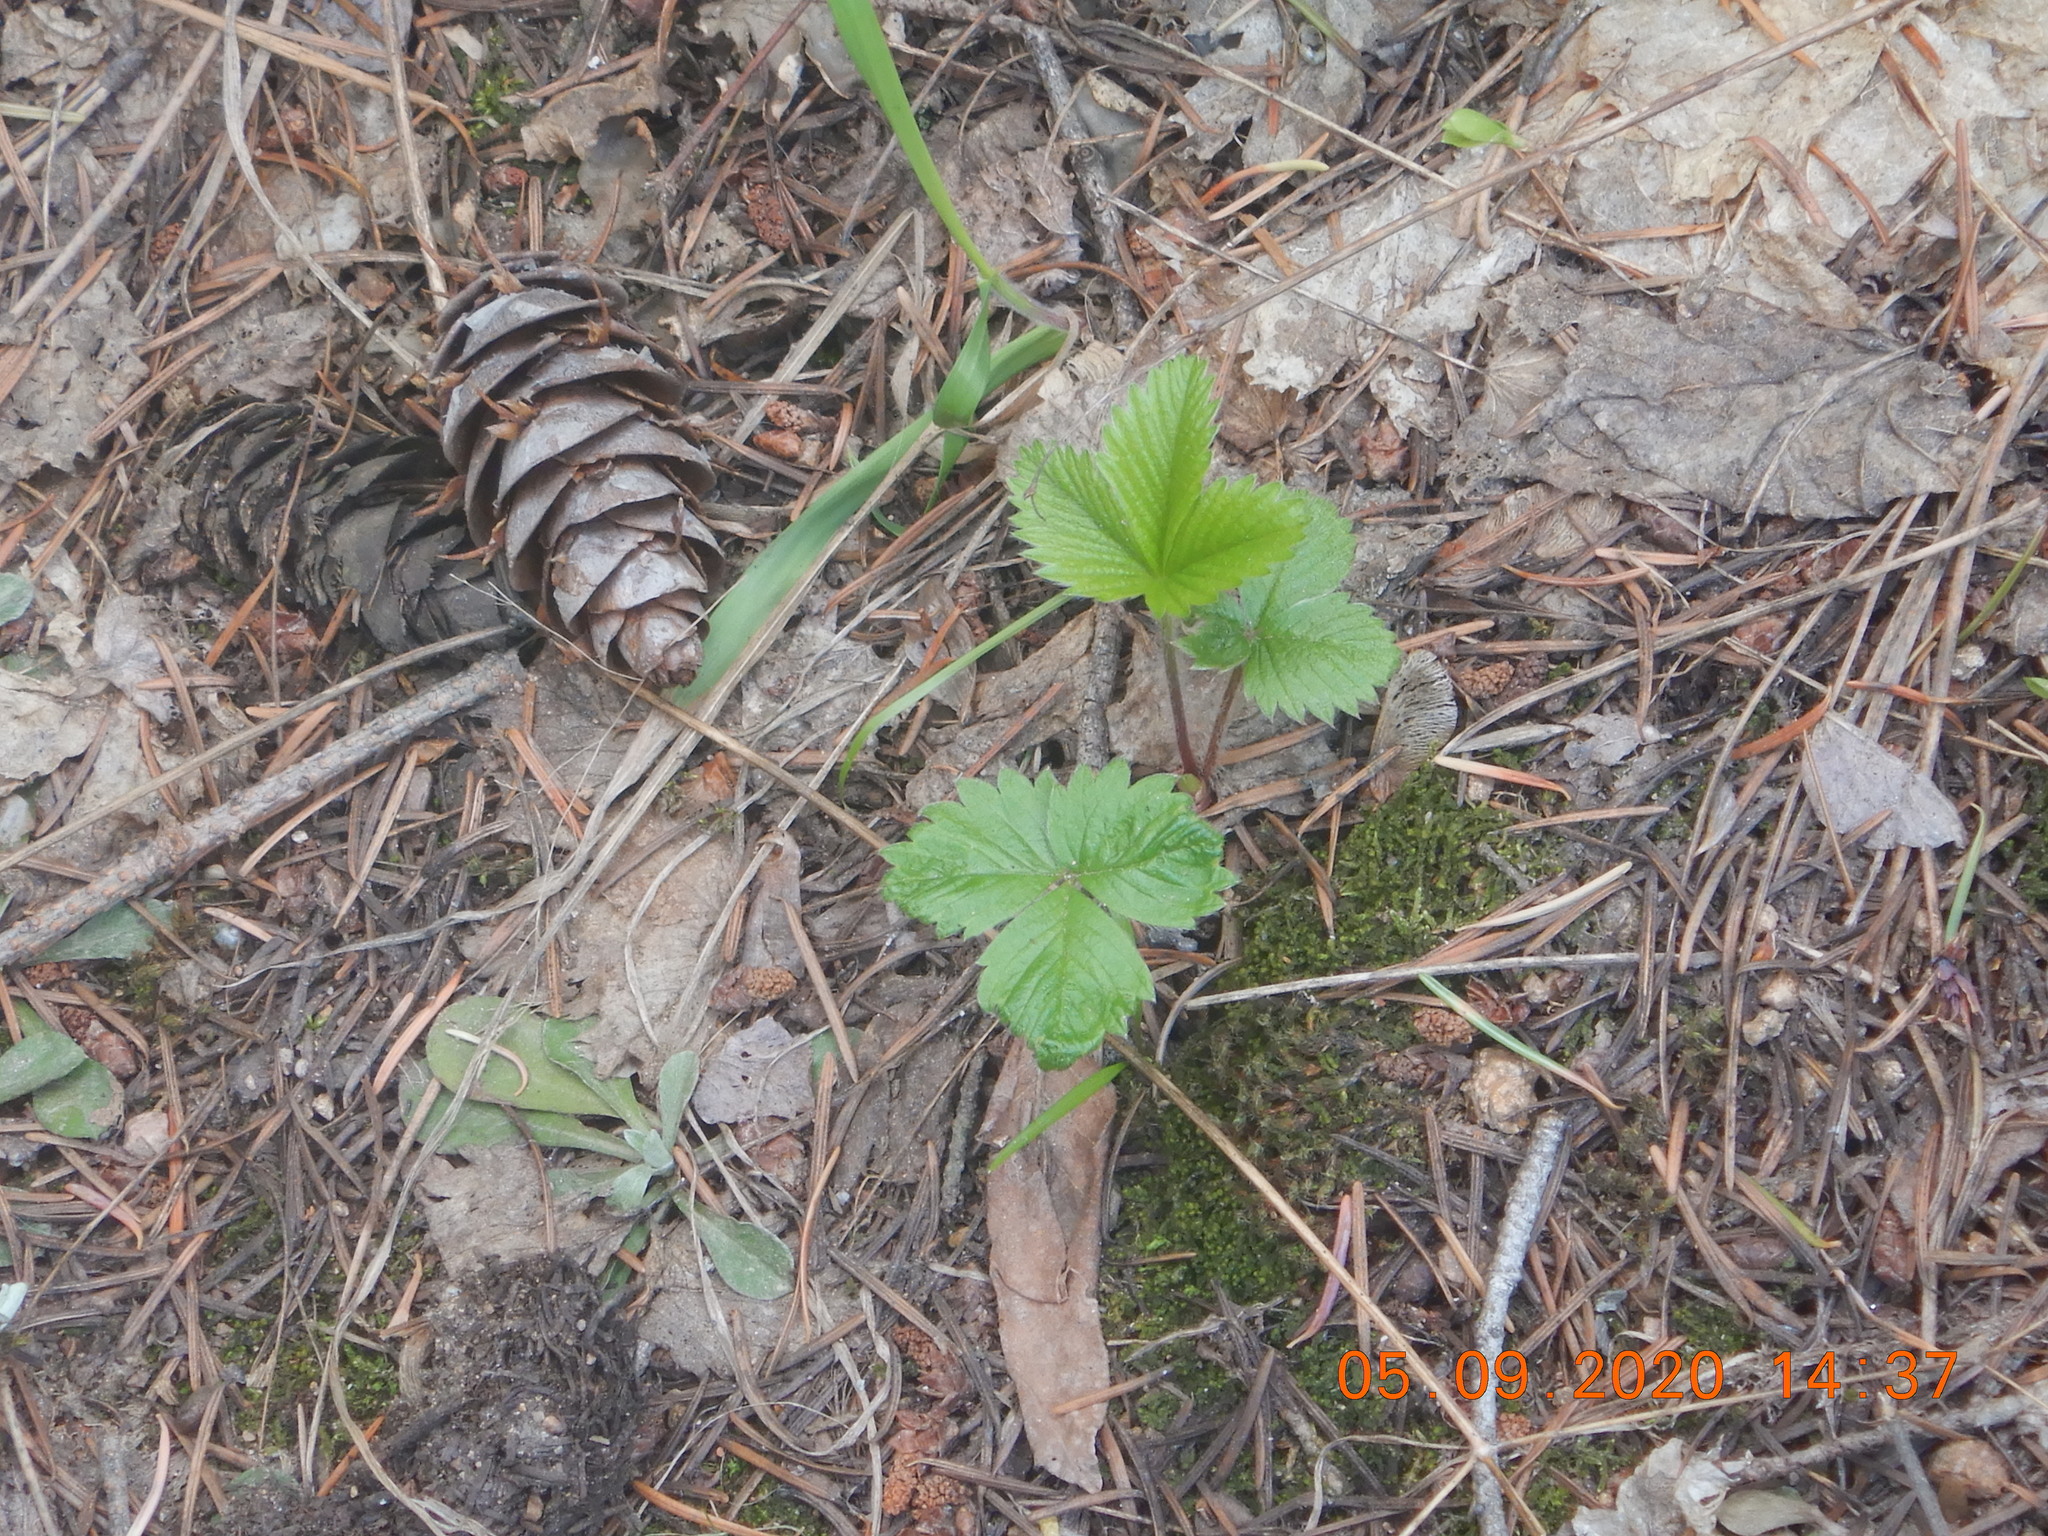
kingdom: Plantae
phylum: Tracheophyta
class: Magnoliopsida
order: Rosales
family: Rosaceae
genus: Fragaria
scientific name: Fragaria vesca
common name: Wild strawberry
